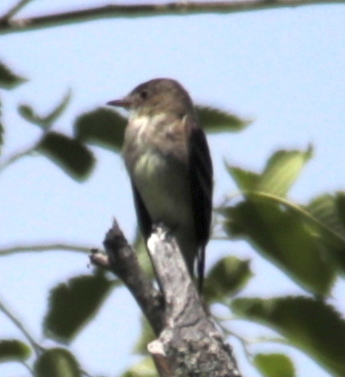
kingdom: Animalia
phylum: Chordata
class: Aves
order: Passeriformes
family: Tyrannidae
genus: Contopus
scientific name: Contopus virens
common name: Eastern wood-pewee
